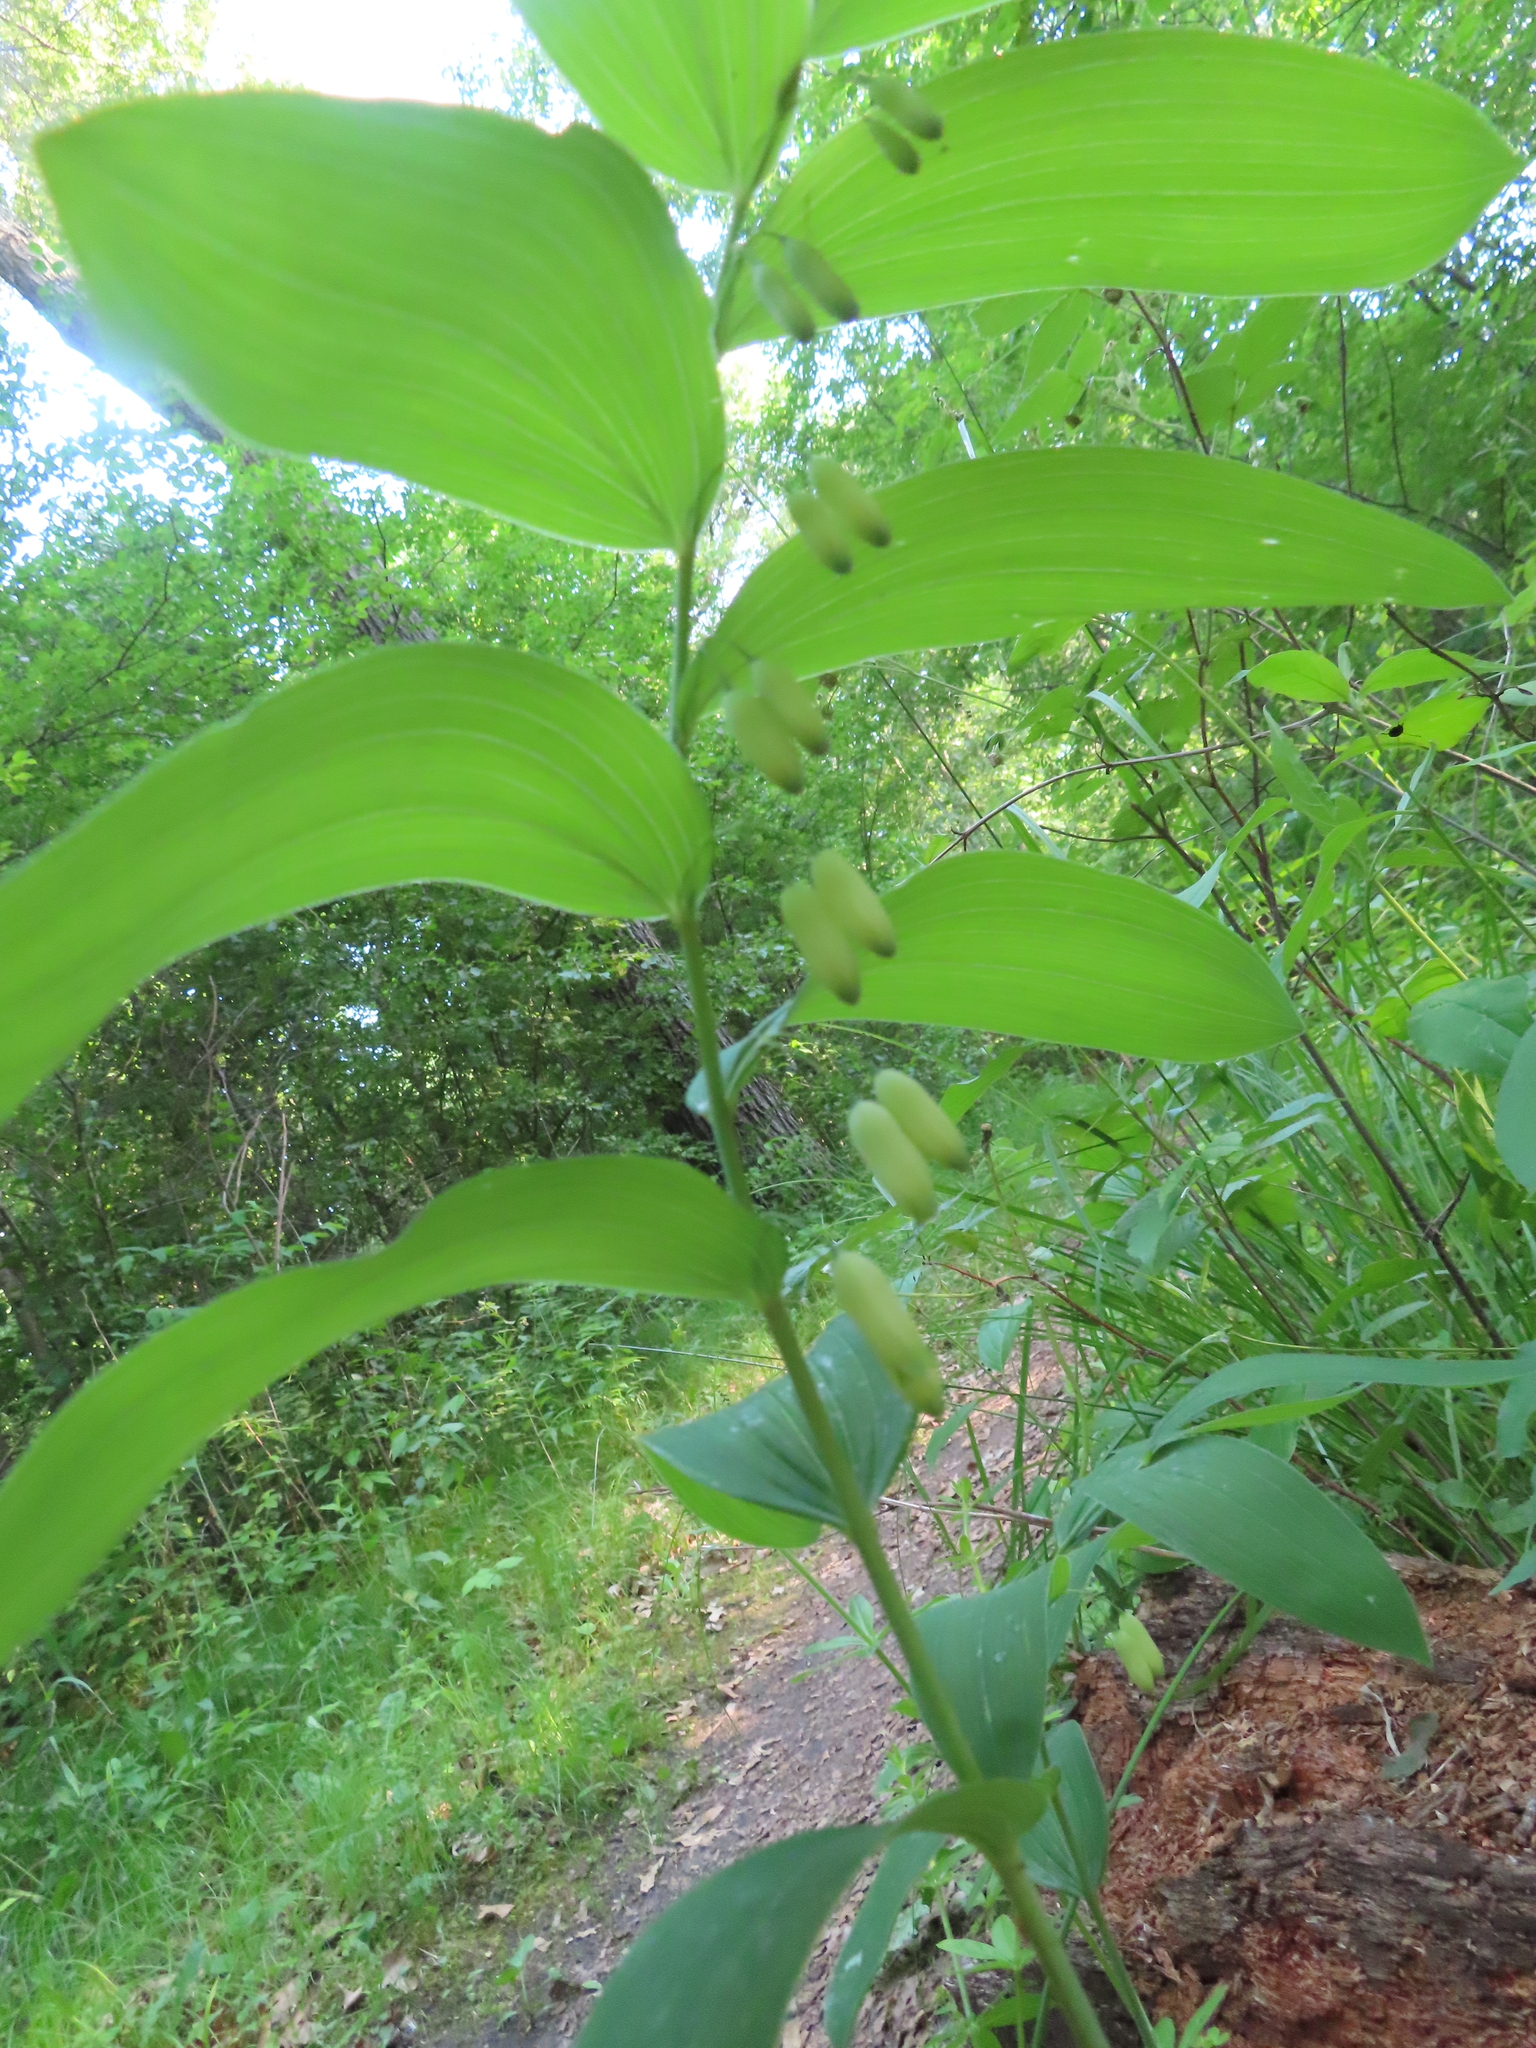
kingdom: Plantae
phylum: Tracheophyta
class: Liliopsida
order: Asparagales
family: Asparagaceae
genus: Polygonatum
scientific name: Polygonatum biflorum
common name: American solomon's-seal
